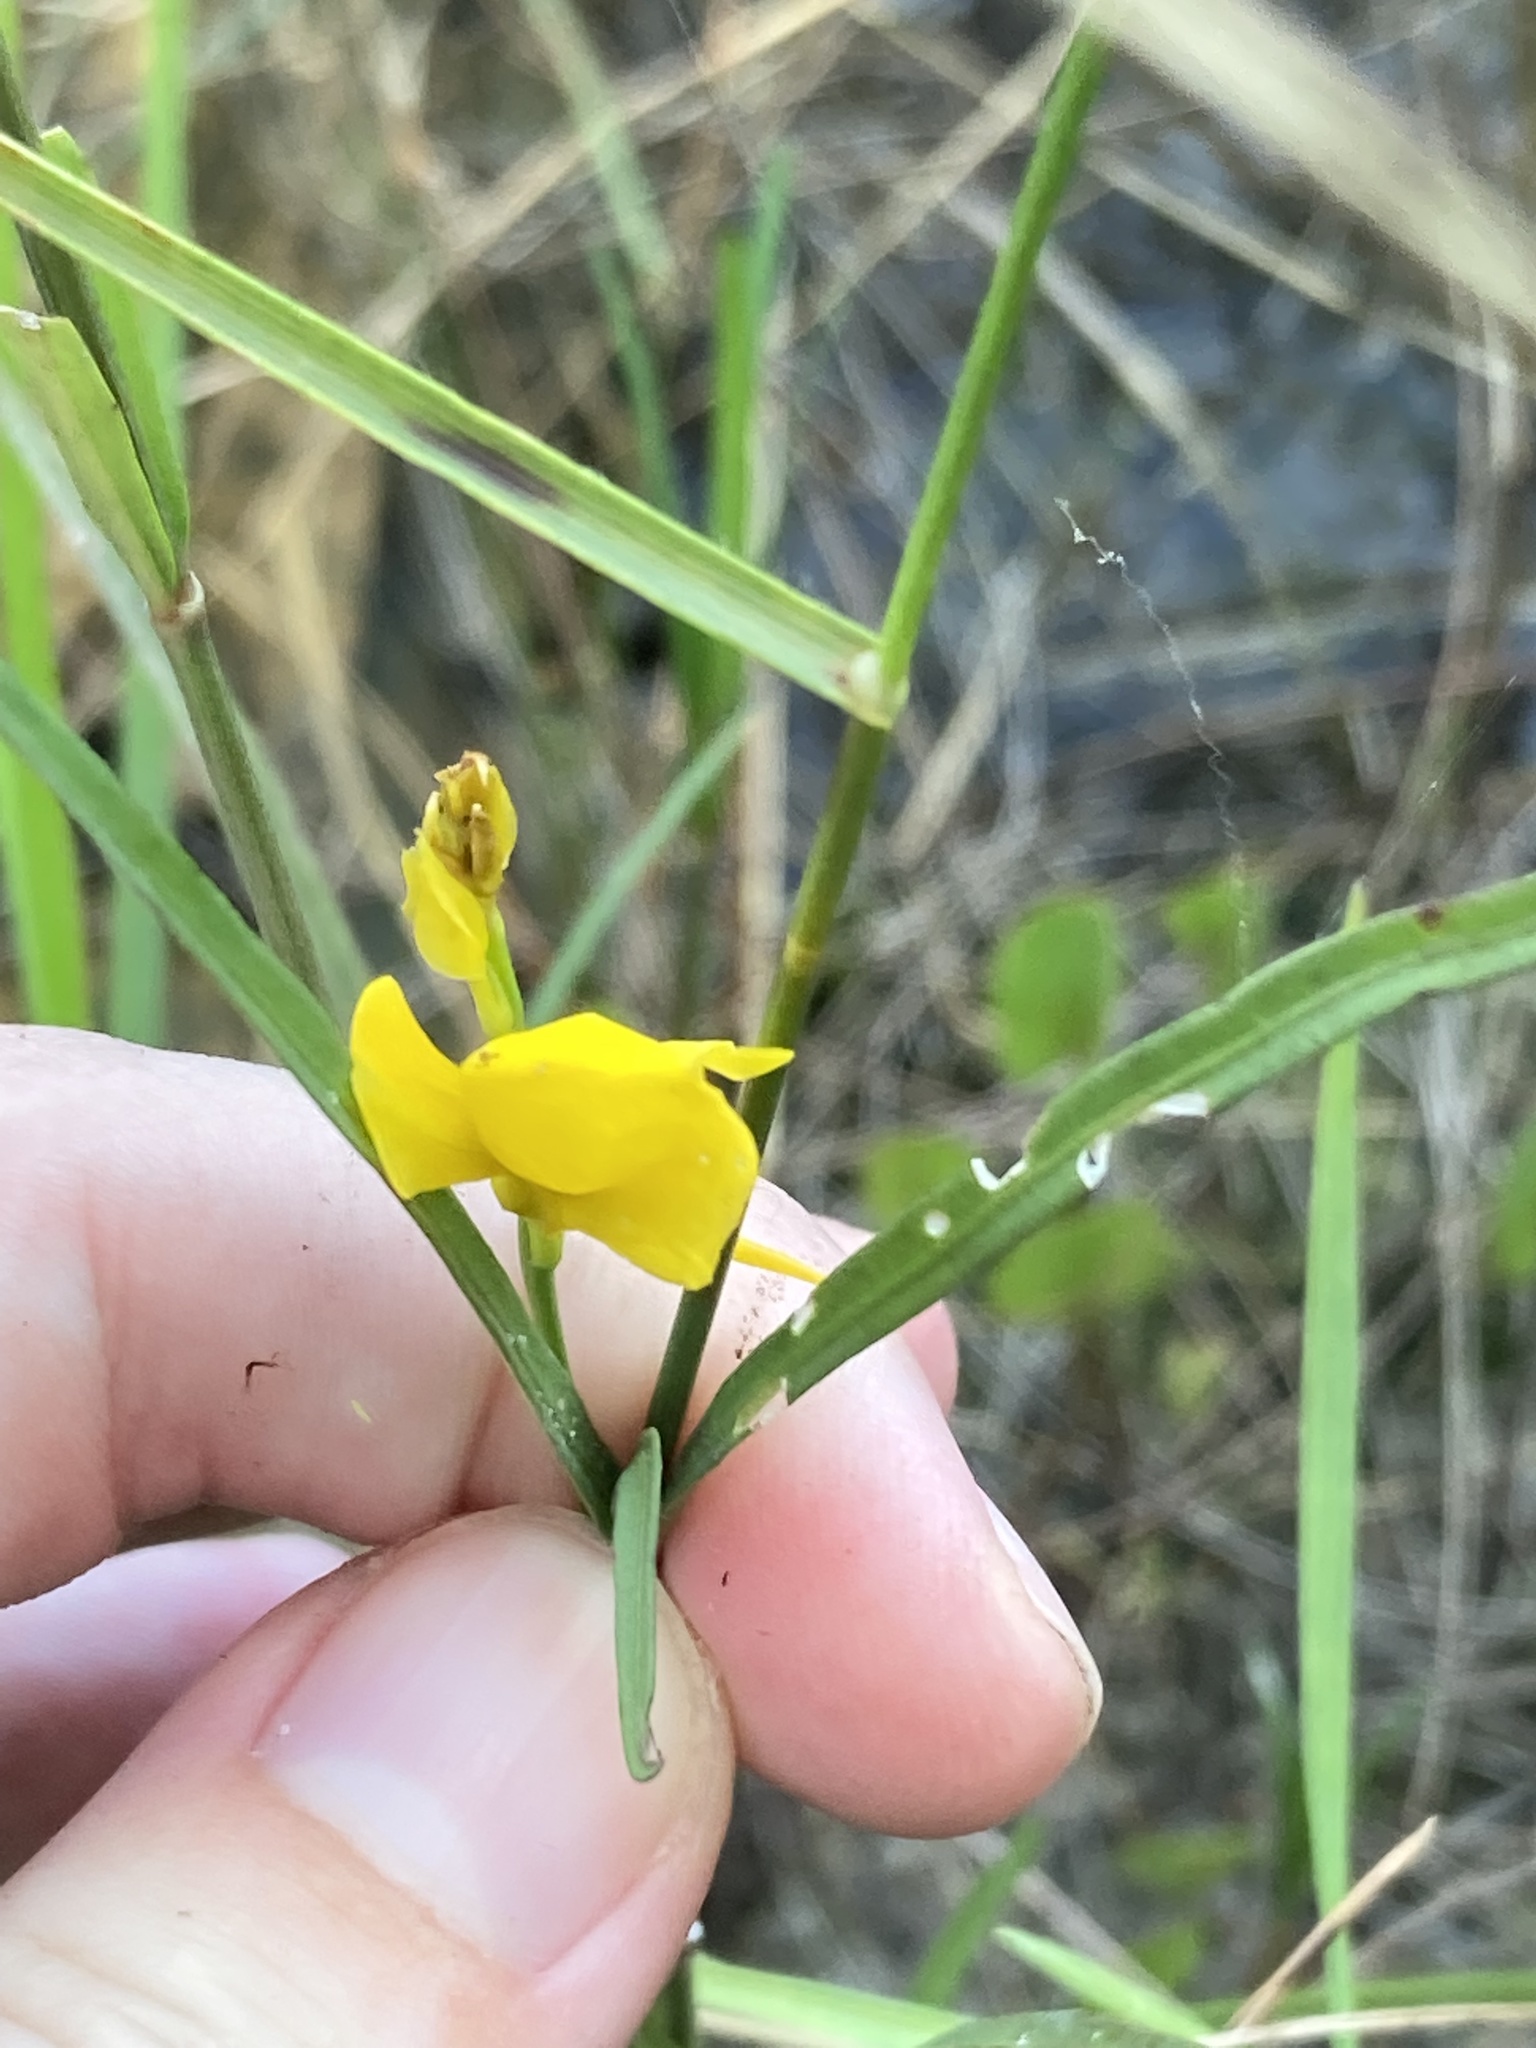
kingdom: Plantae
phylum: Tracheophyta
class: Magnoliopsida
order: Lamiales
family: Lentibulariaceae
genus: Utricularia
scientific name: Utricularia cornuta
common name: Horned bladderwort
